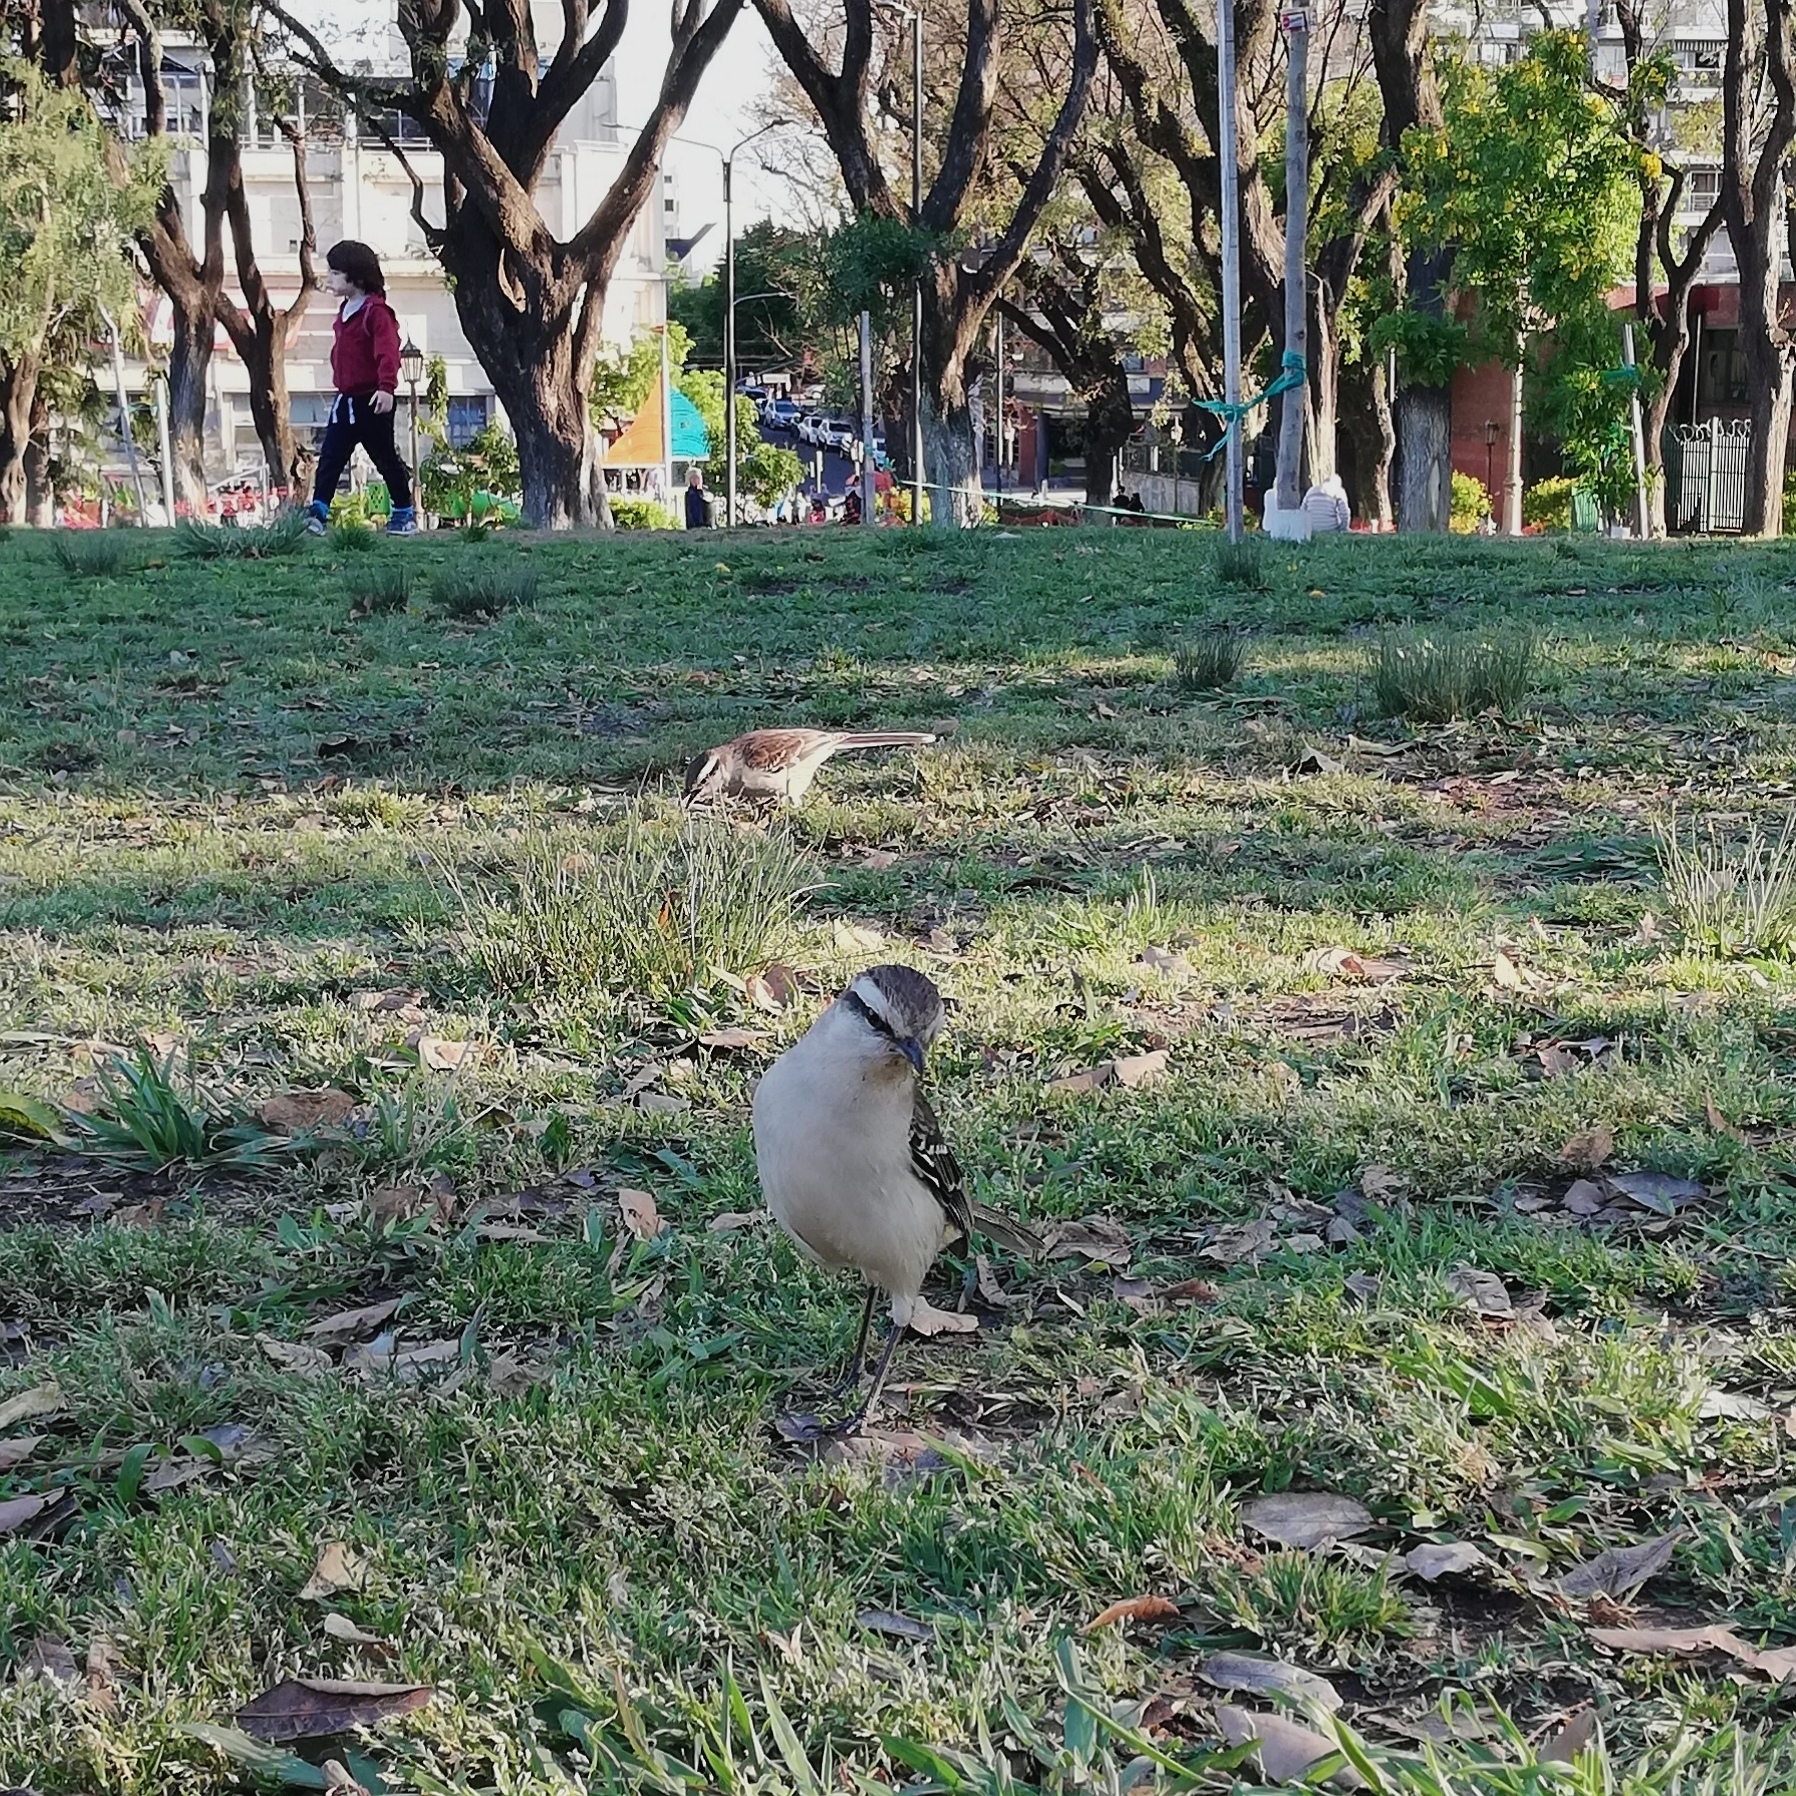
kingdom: Animalia
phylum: Chordata
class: Aves
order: Passeriformes
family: Mimidae
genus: Mimus
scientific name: Mimus saturninus
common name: Chalk-browed mockingbird
